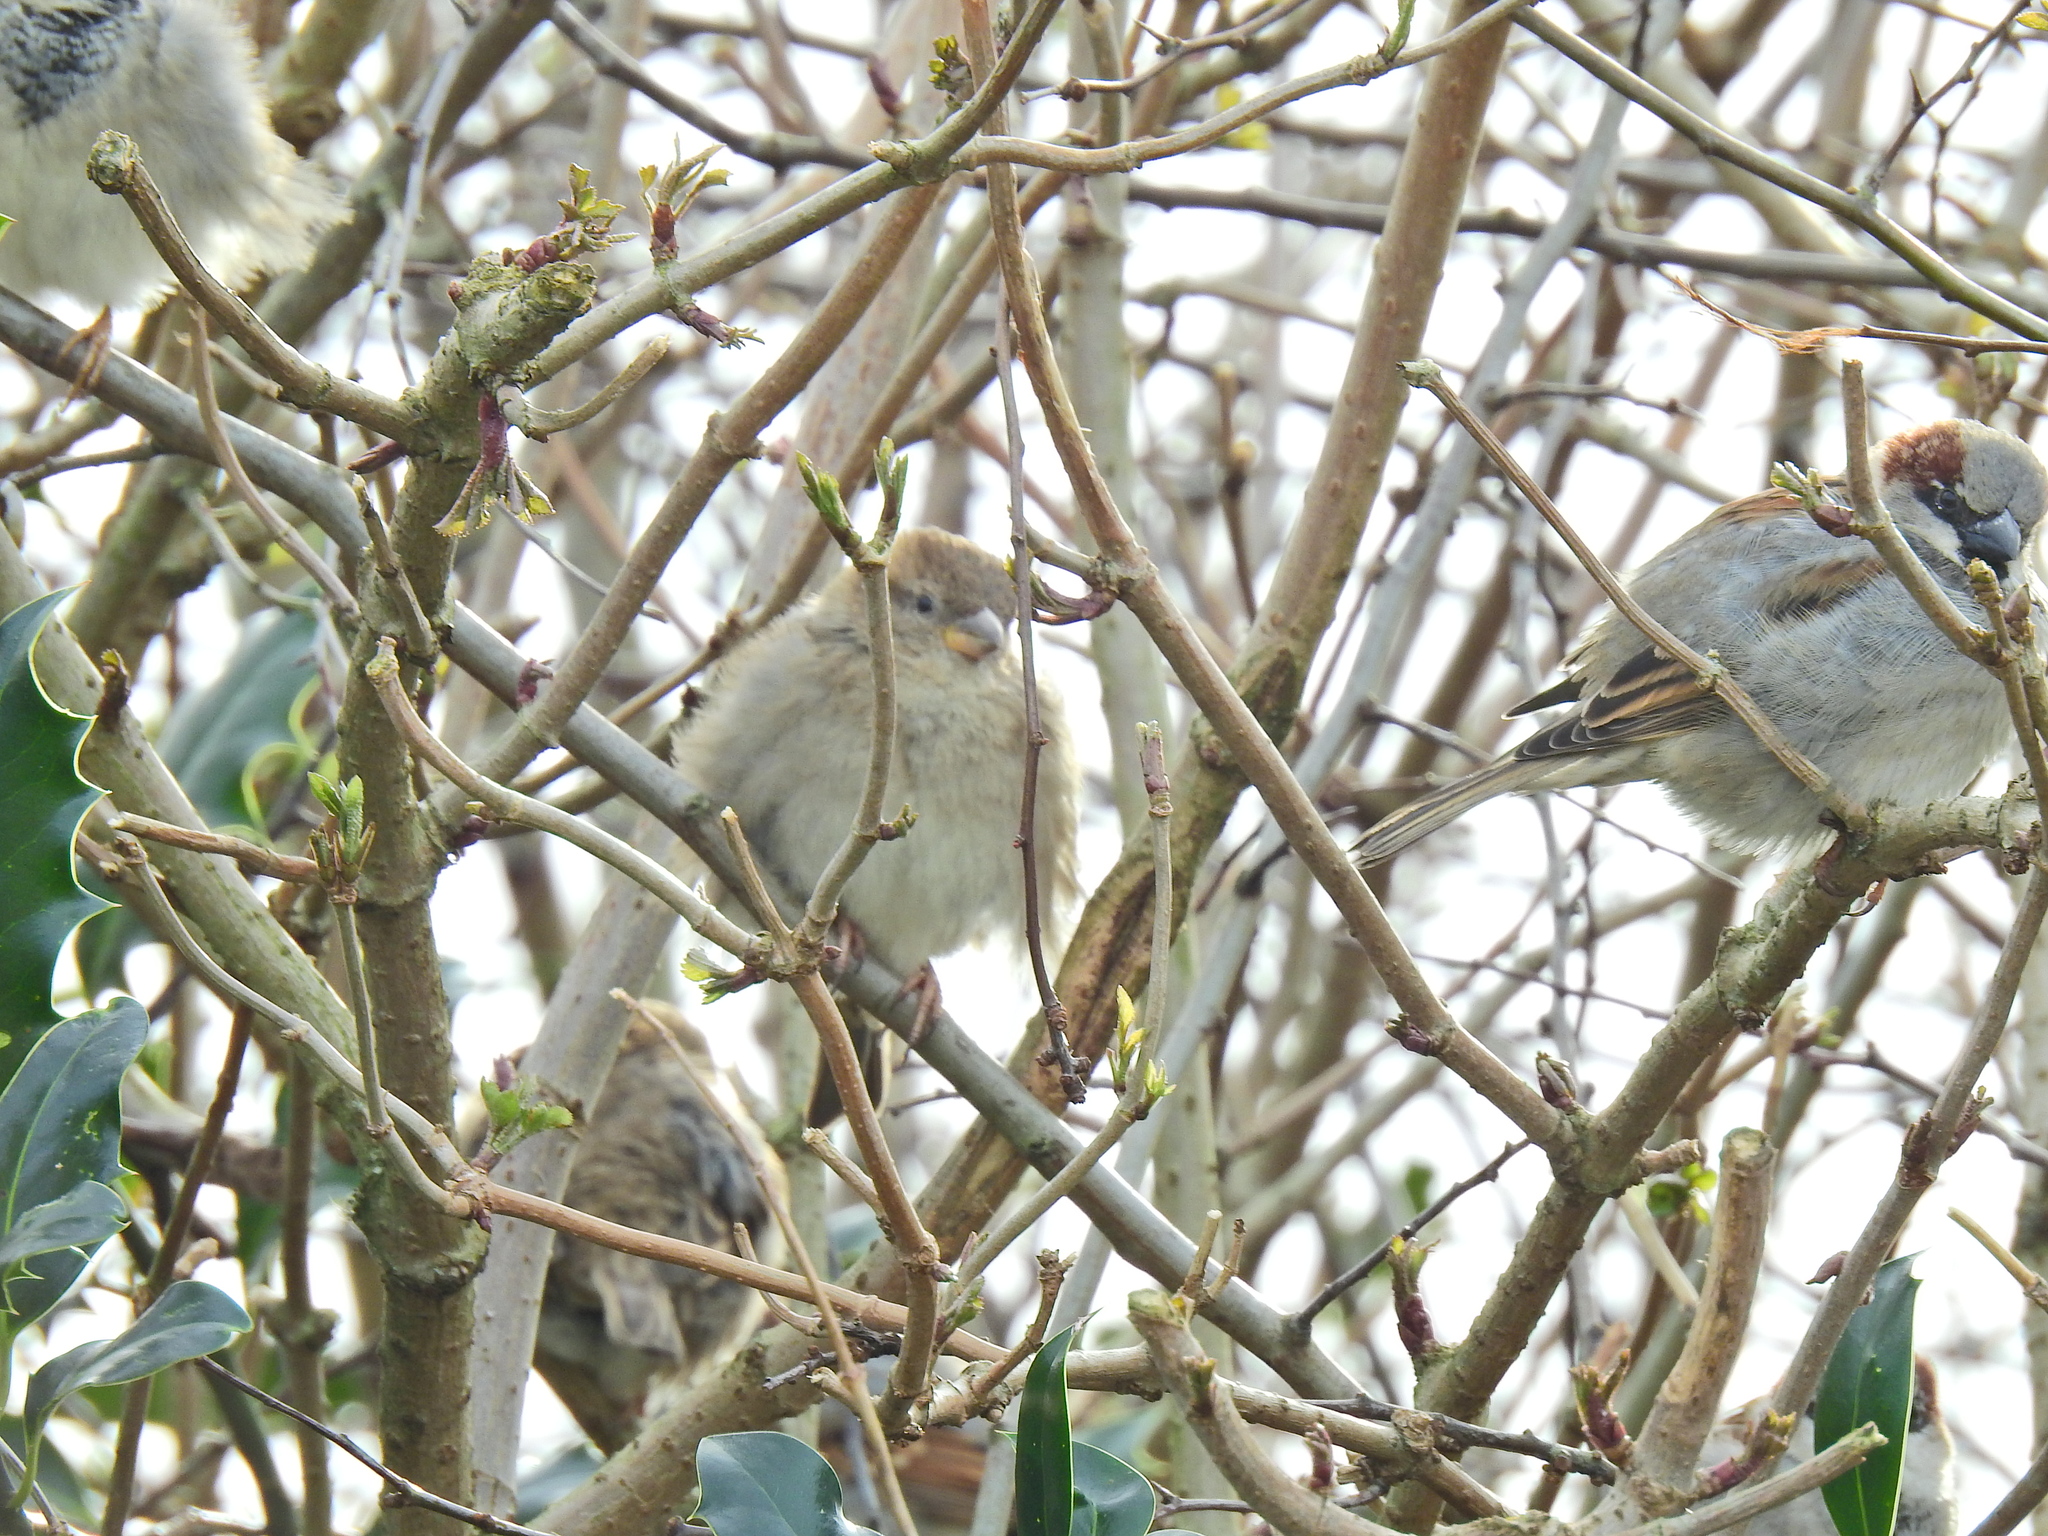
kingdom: Animalia
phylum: Chordata
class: Aves
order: Passeriformes
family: Passeridae
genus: Passer
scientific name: Passer domesticus
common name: House sparrow
